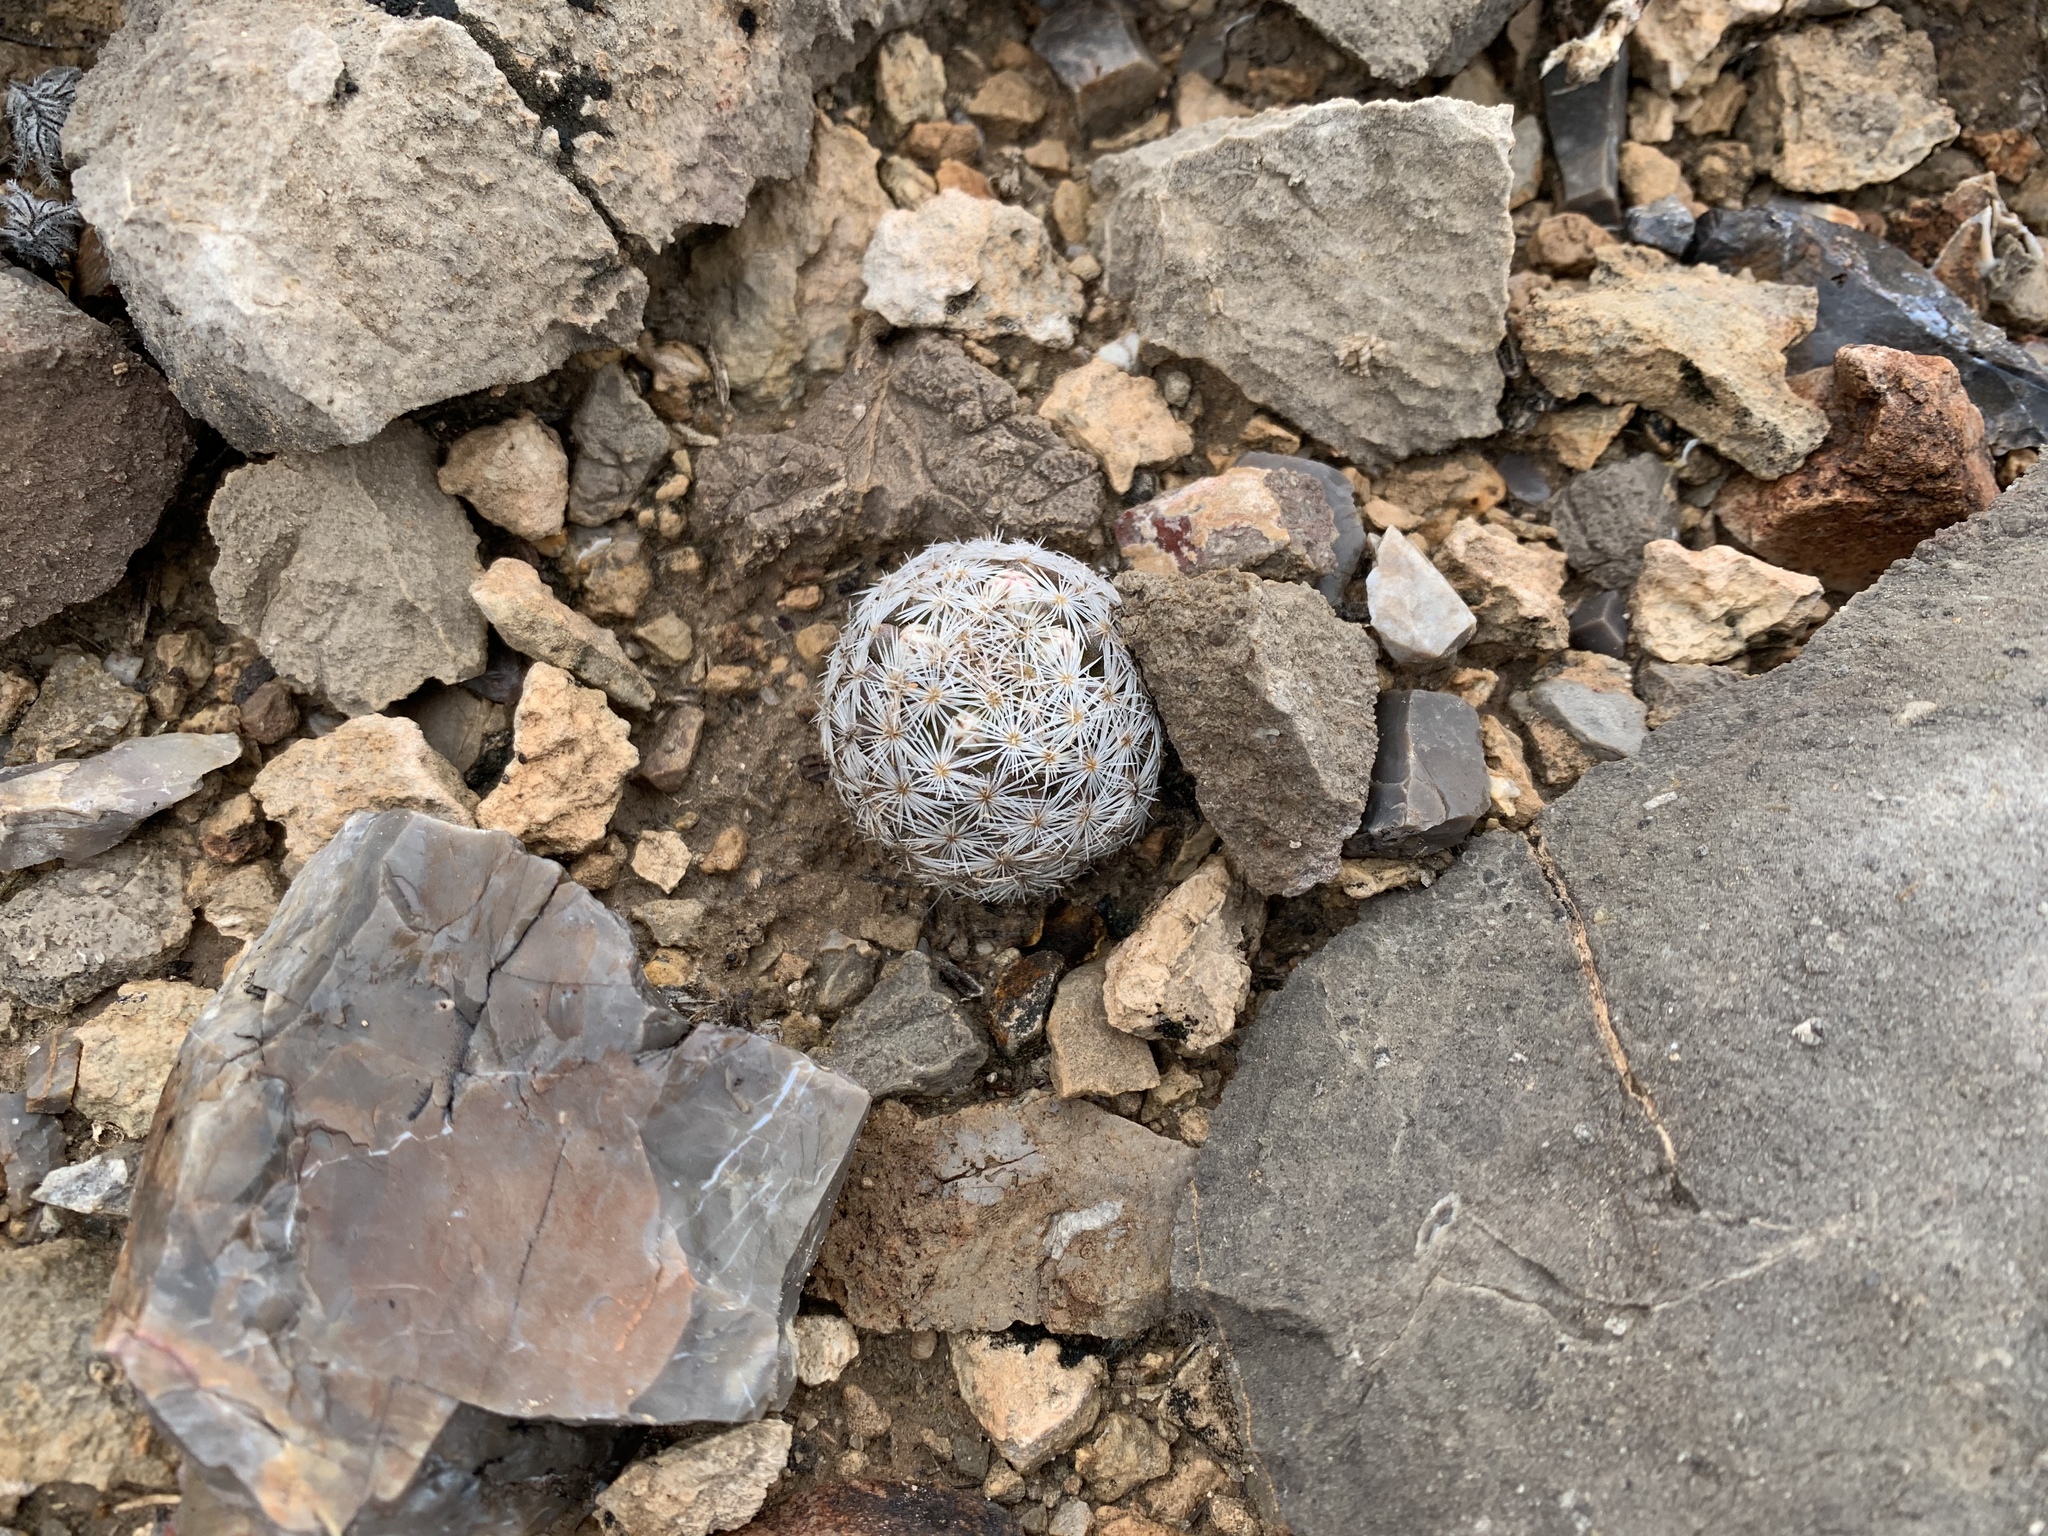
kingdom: Plantae
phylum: Tracheophyta
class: Magnoliopsida
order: Caryophyllales
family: Cactaceae
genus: Mammillaria
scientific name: Mammillaria lasiacantha
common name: Lace-spine nipple cactus
